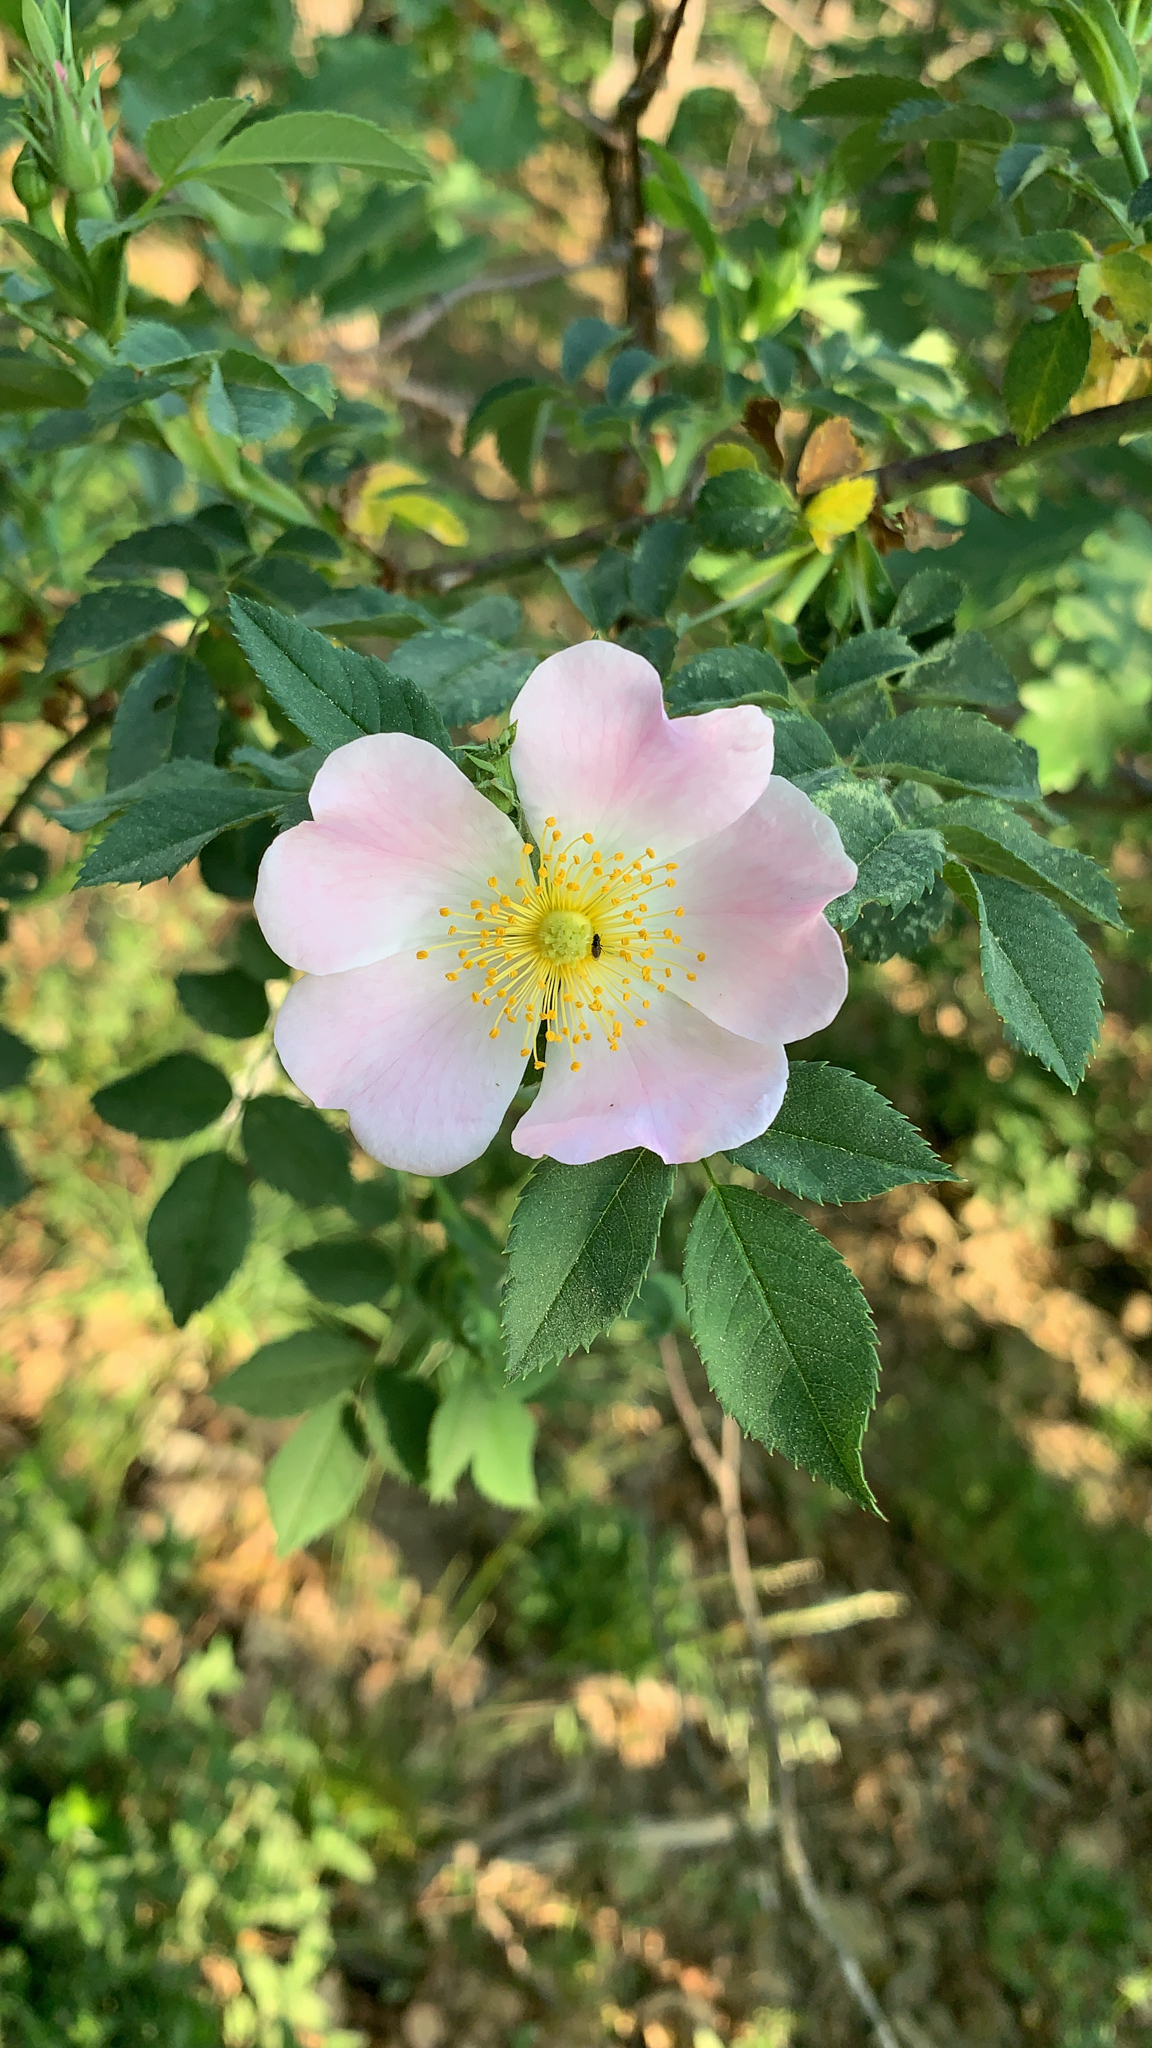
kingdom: Plantae
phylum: Tracheophyta
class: Magnoliopsida
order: Rosales
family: Rosaceae
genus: Rosa
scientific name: Rosa canina
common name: Dog rose
